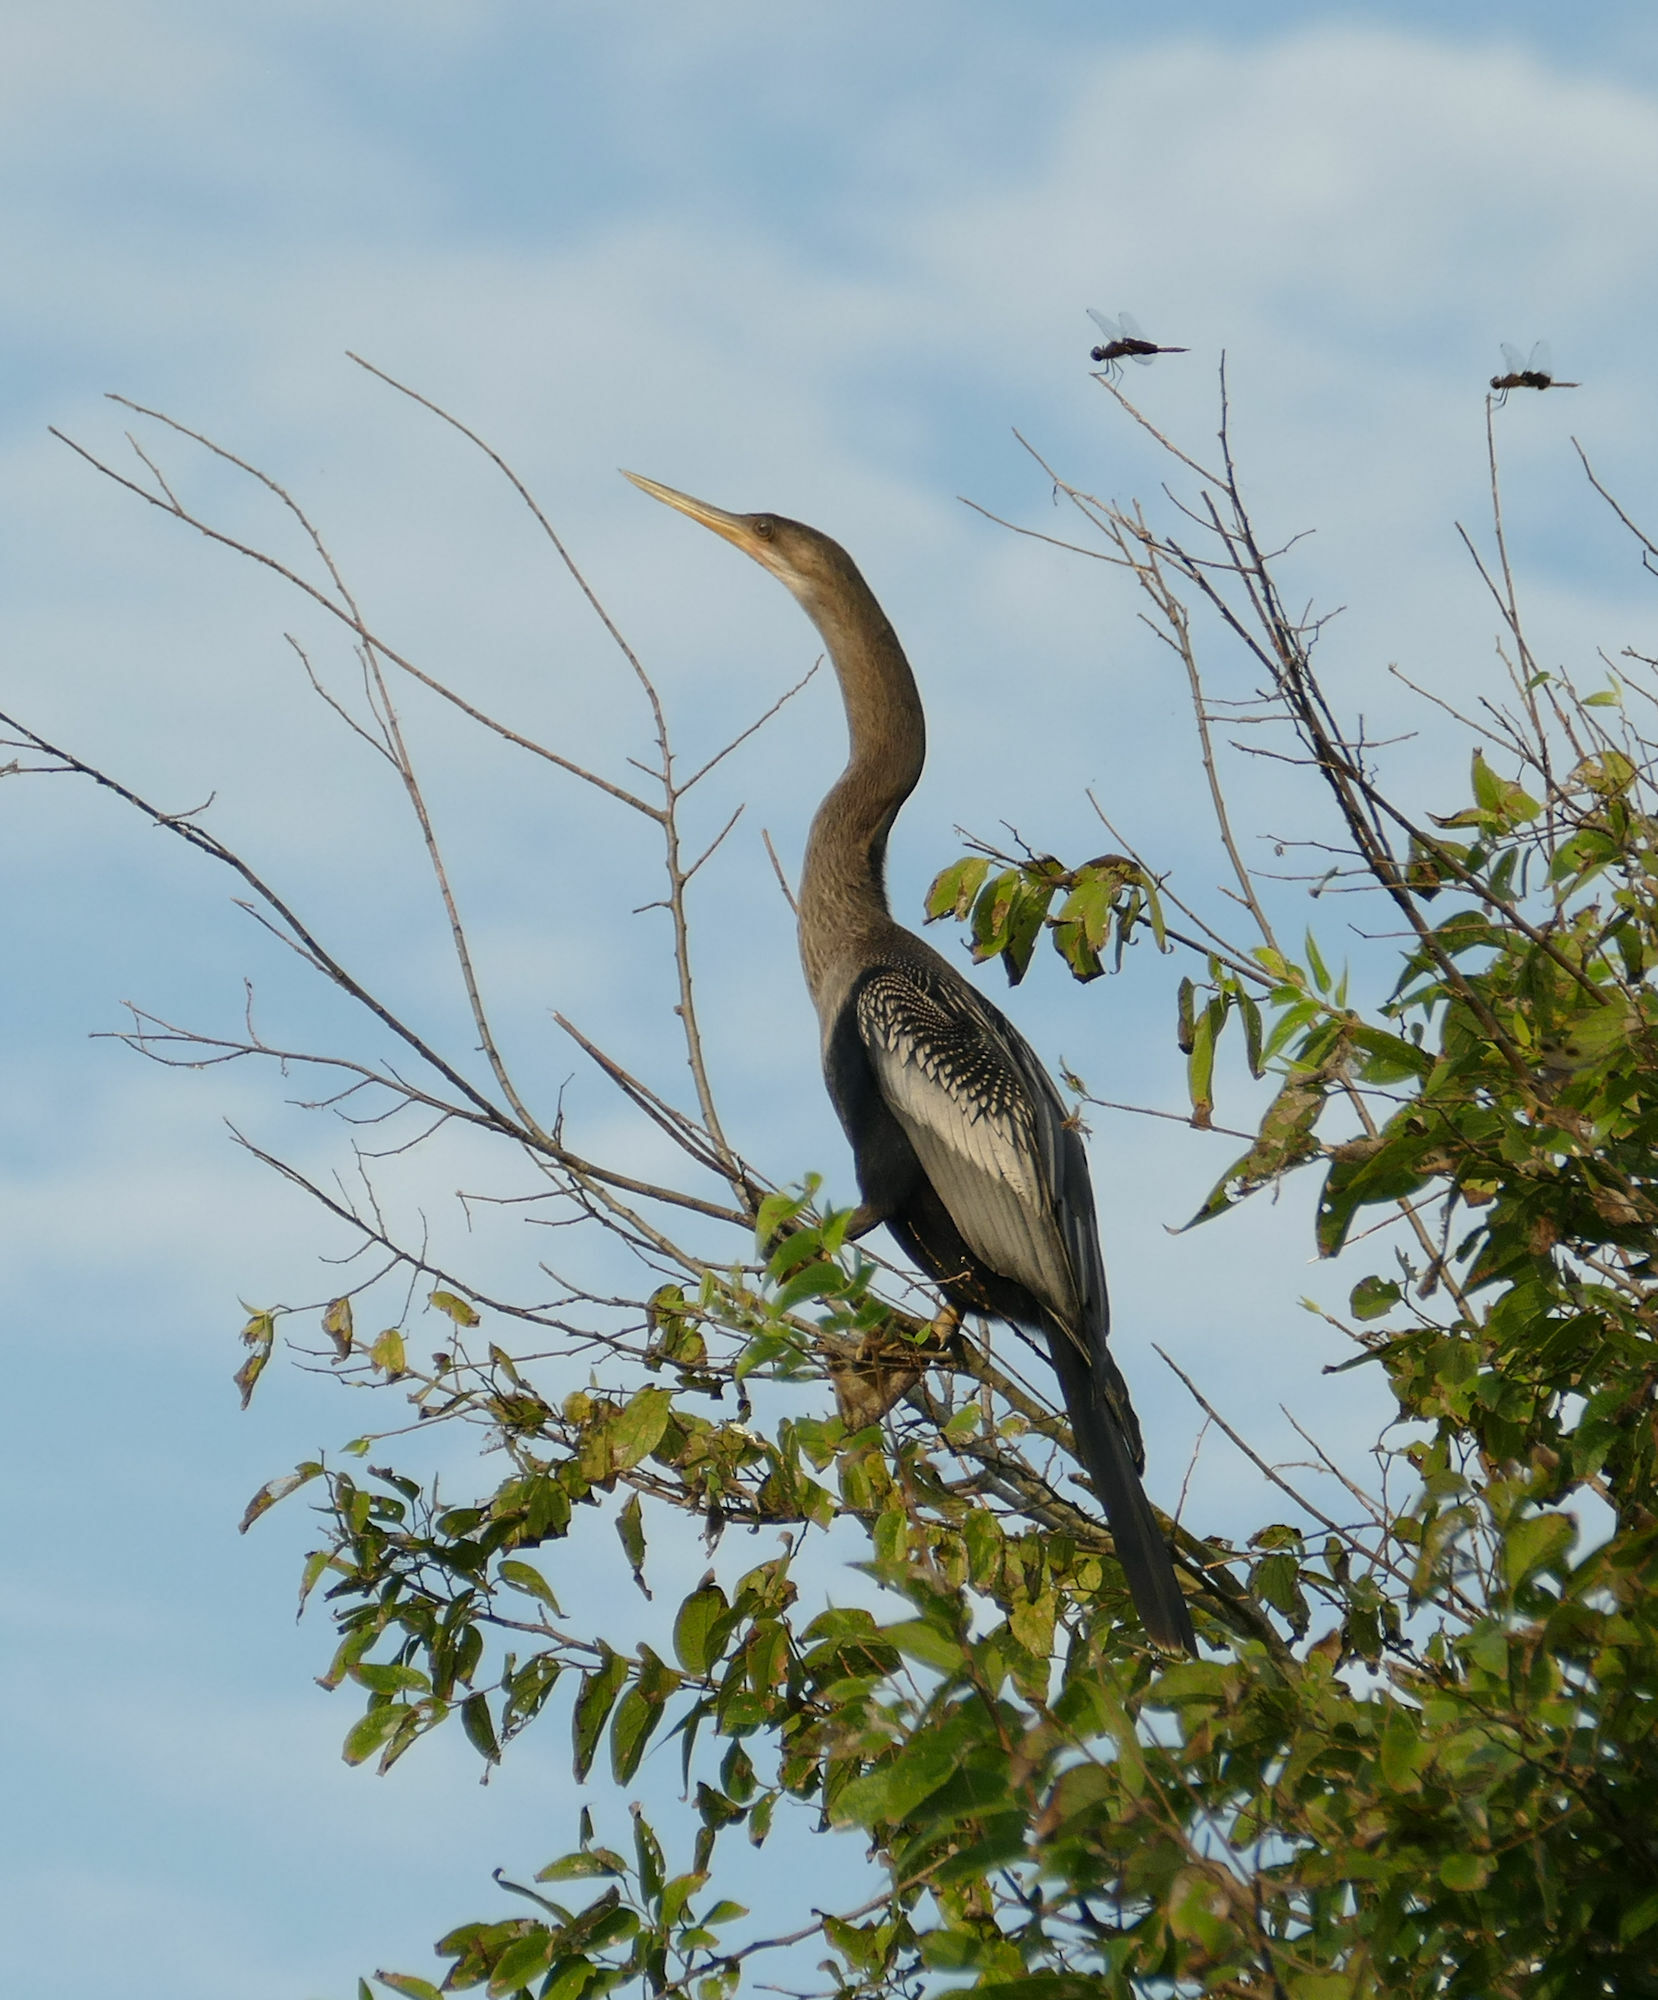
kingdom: Animalia
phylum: Chordata
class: Aves
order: Suliformes
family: Anhingidae
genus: Anhinga
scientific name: Anhinga anhinga
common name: Anhinga
